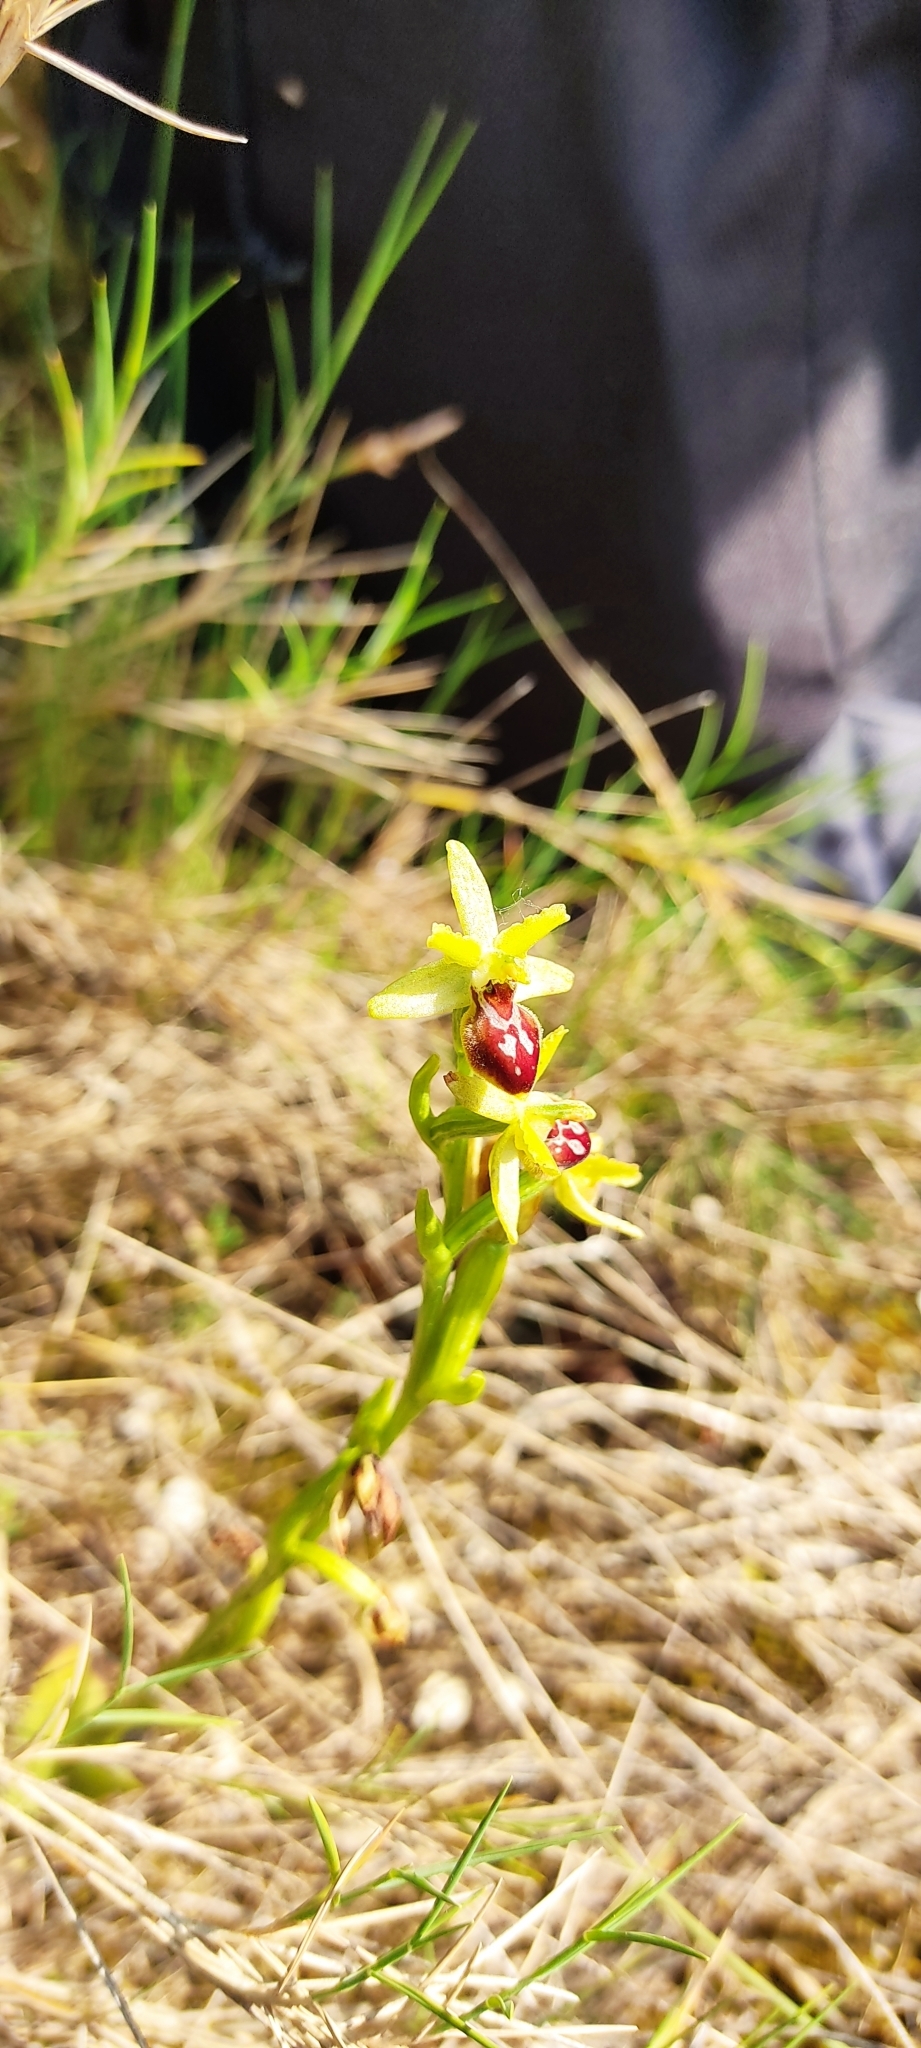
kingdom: Plantae
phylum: Tracheophyta
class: Liliopsida
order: Asparagales
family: Orchidaceae
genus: Ophrys
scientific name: Ophrys sphegodes
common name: Early spider-orchid
